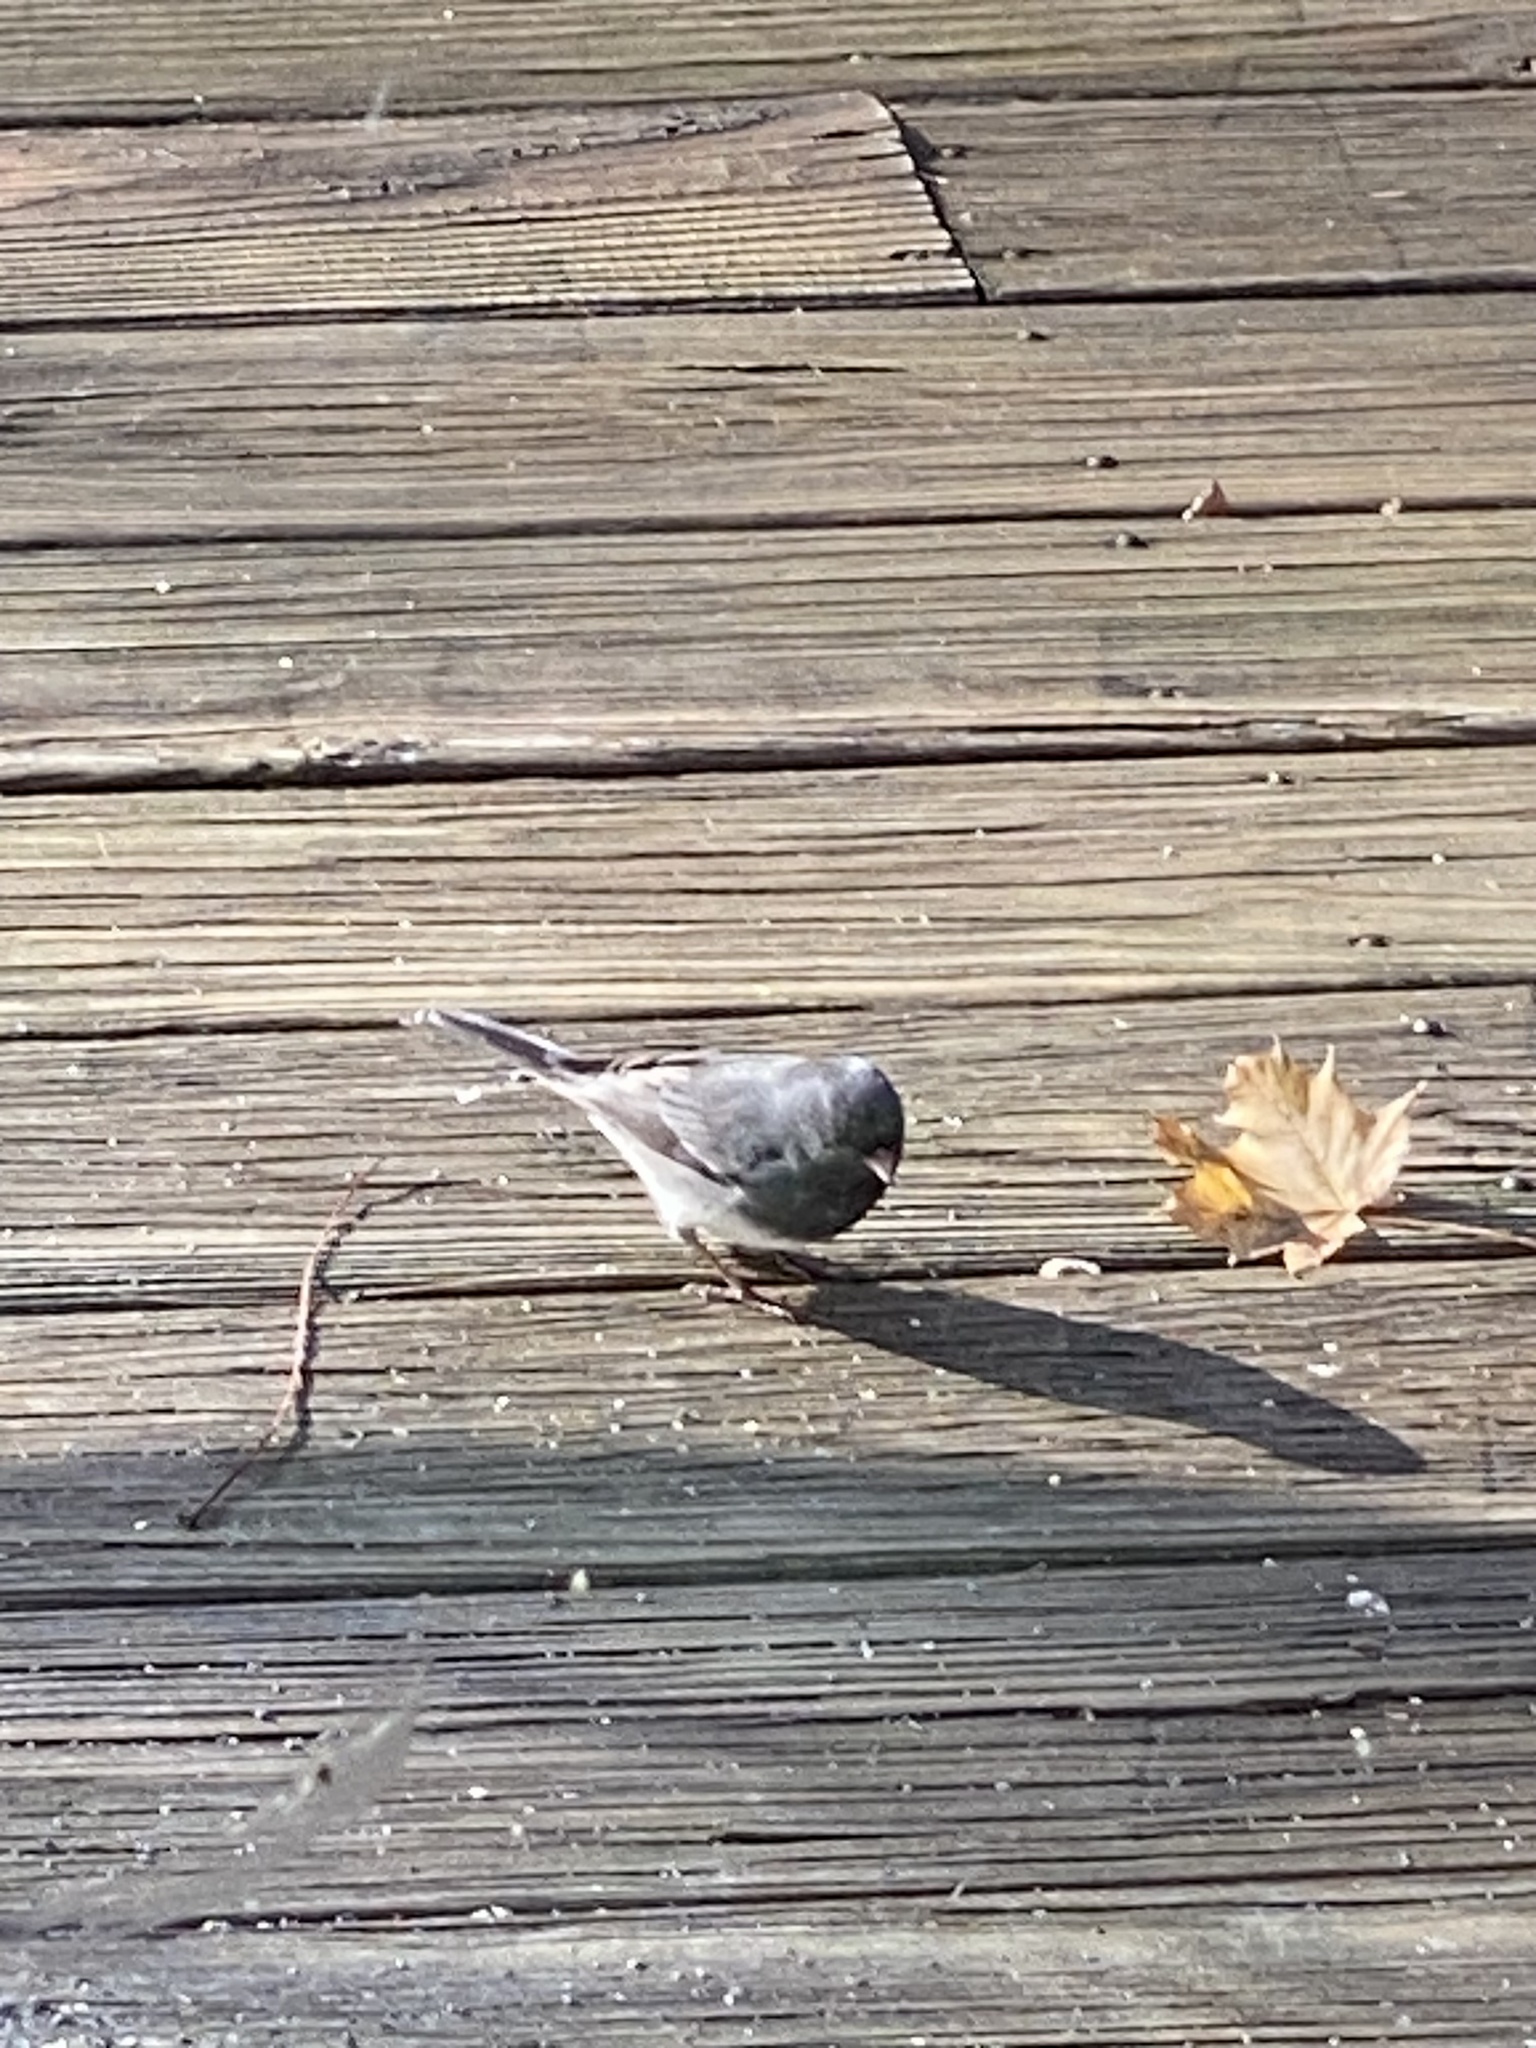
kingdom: Animalia
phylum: Chordata
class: Aves
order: Passeriformes
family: Passerellidae
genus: Junco
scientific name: Junco hyemalis
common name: Dark-eyed junco
